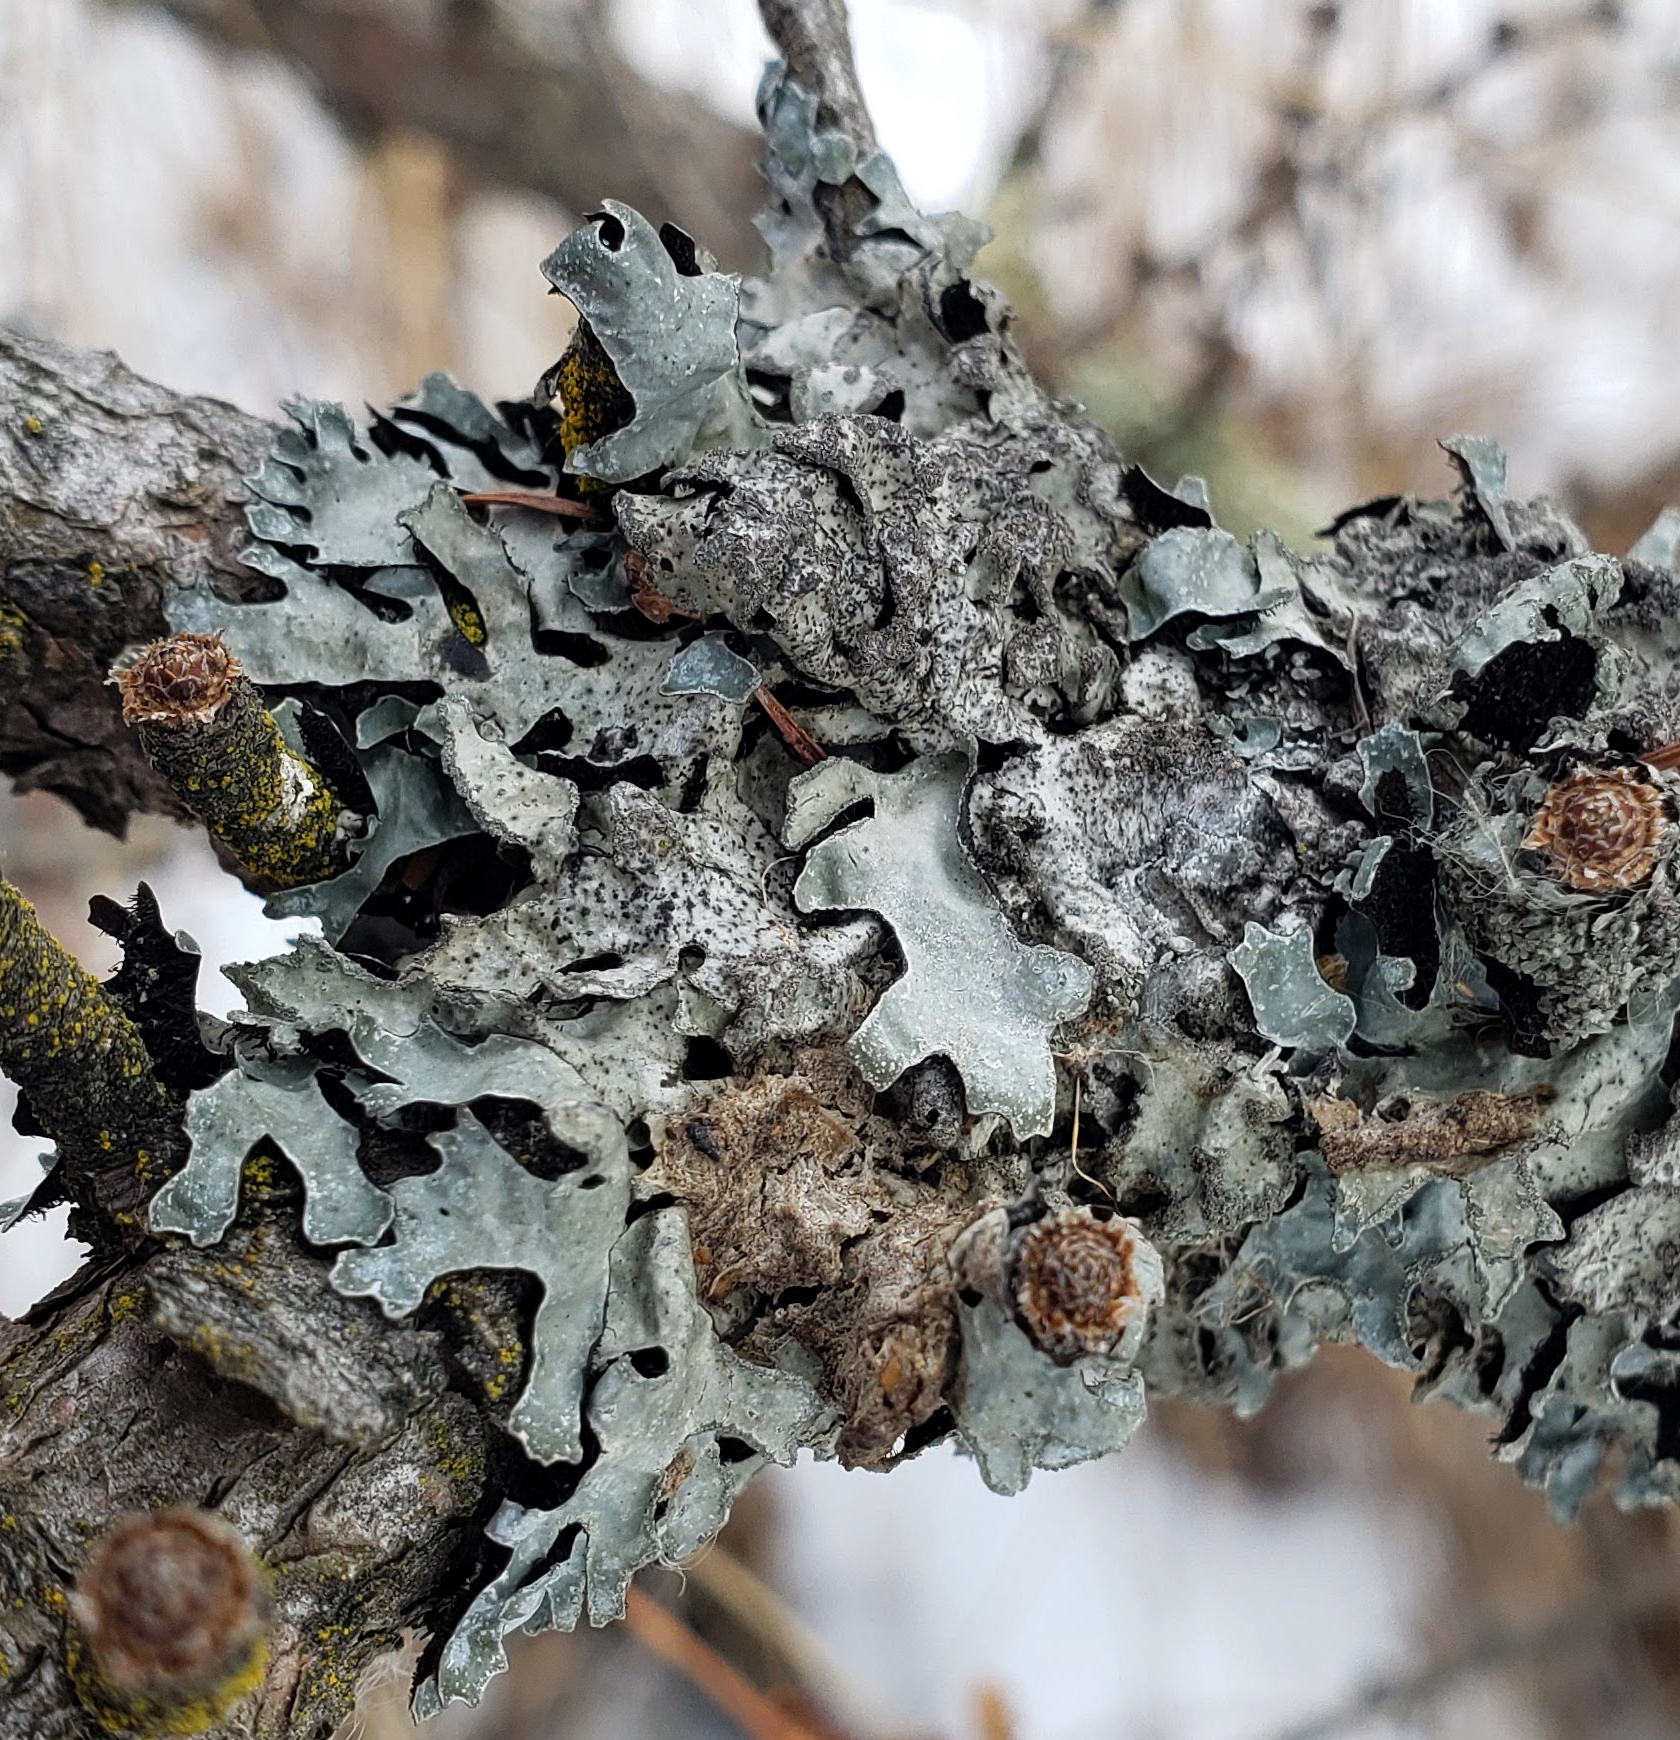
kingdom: Fungi
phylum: Ascomycota
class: Lecanoromycetes
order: Lecanorales
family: Parmeliaceae
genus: Parmelia
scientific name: Parmelia sulcata
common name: Netted shield lichen
